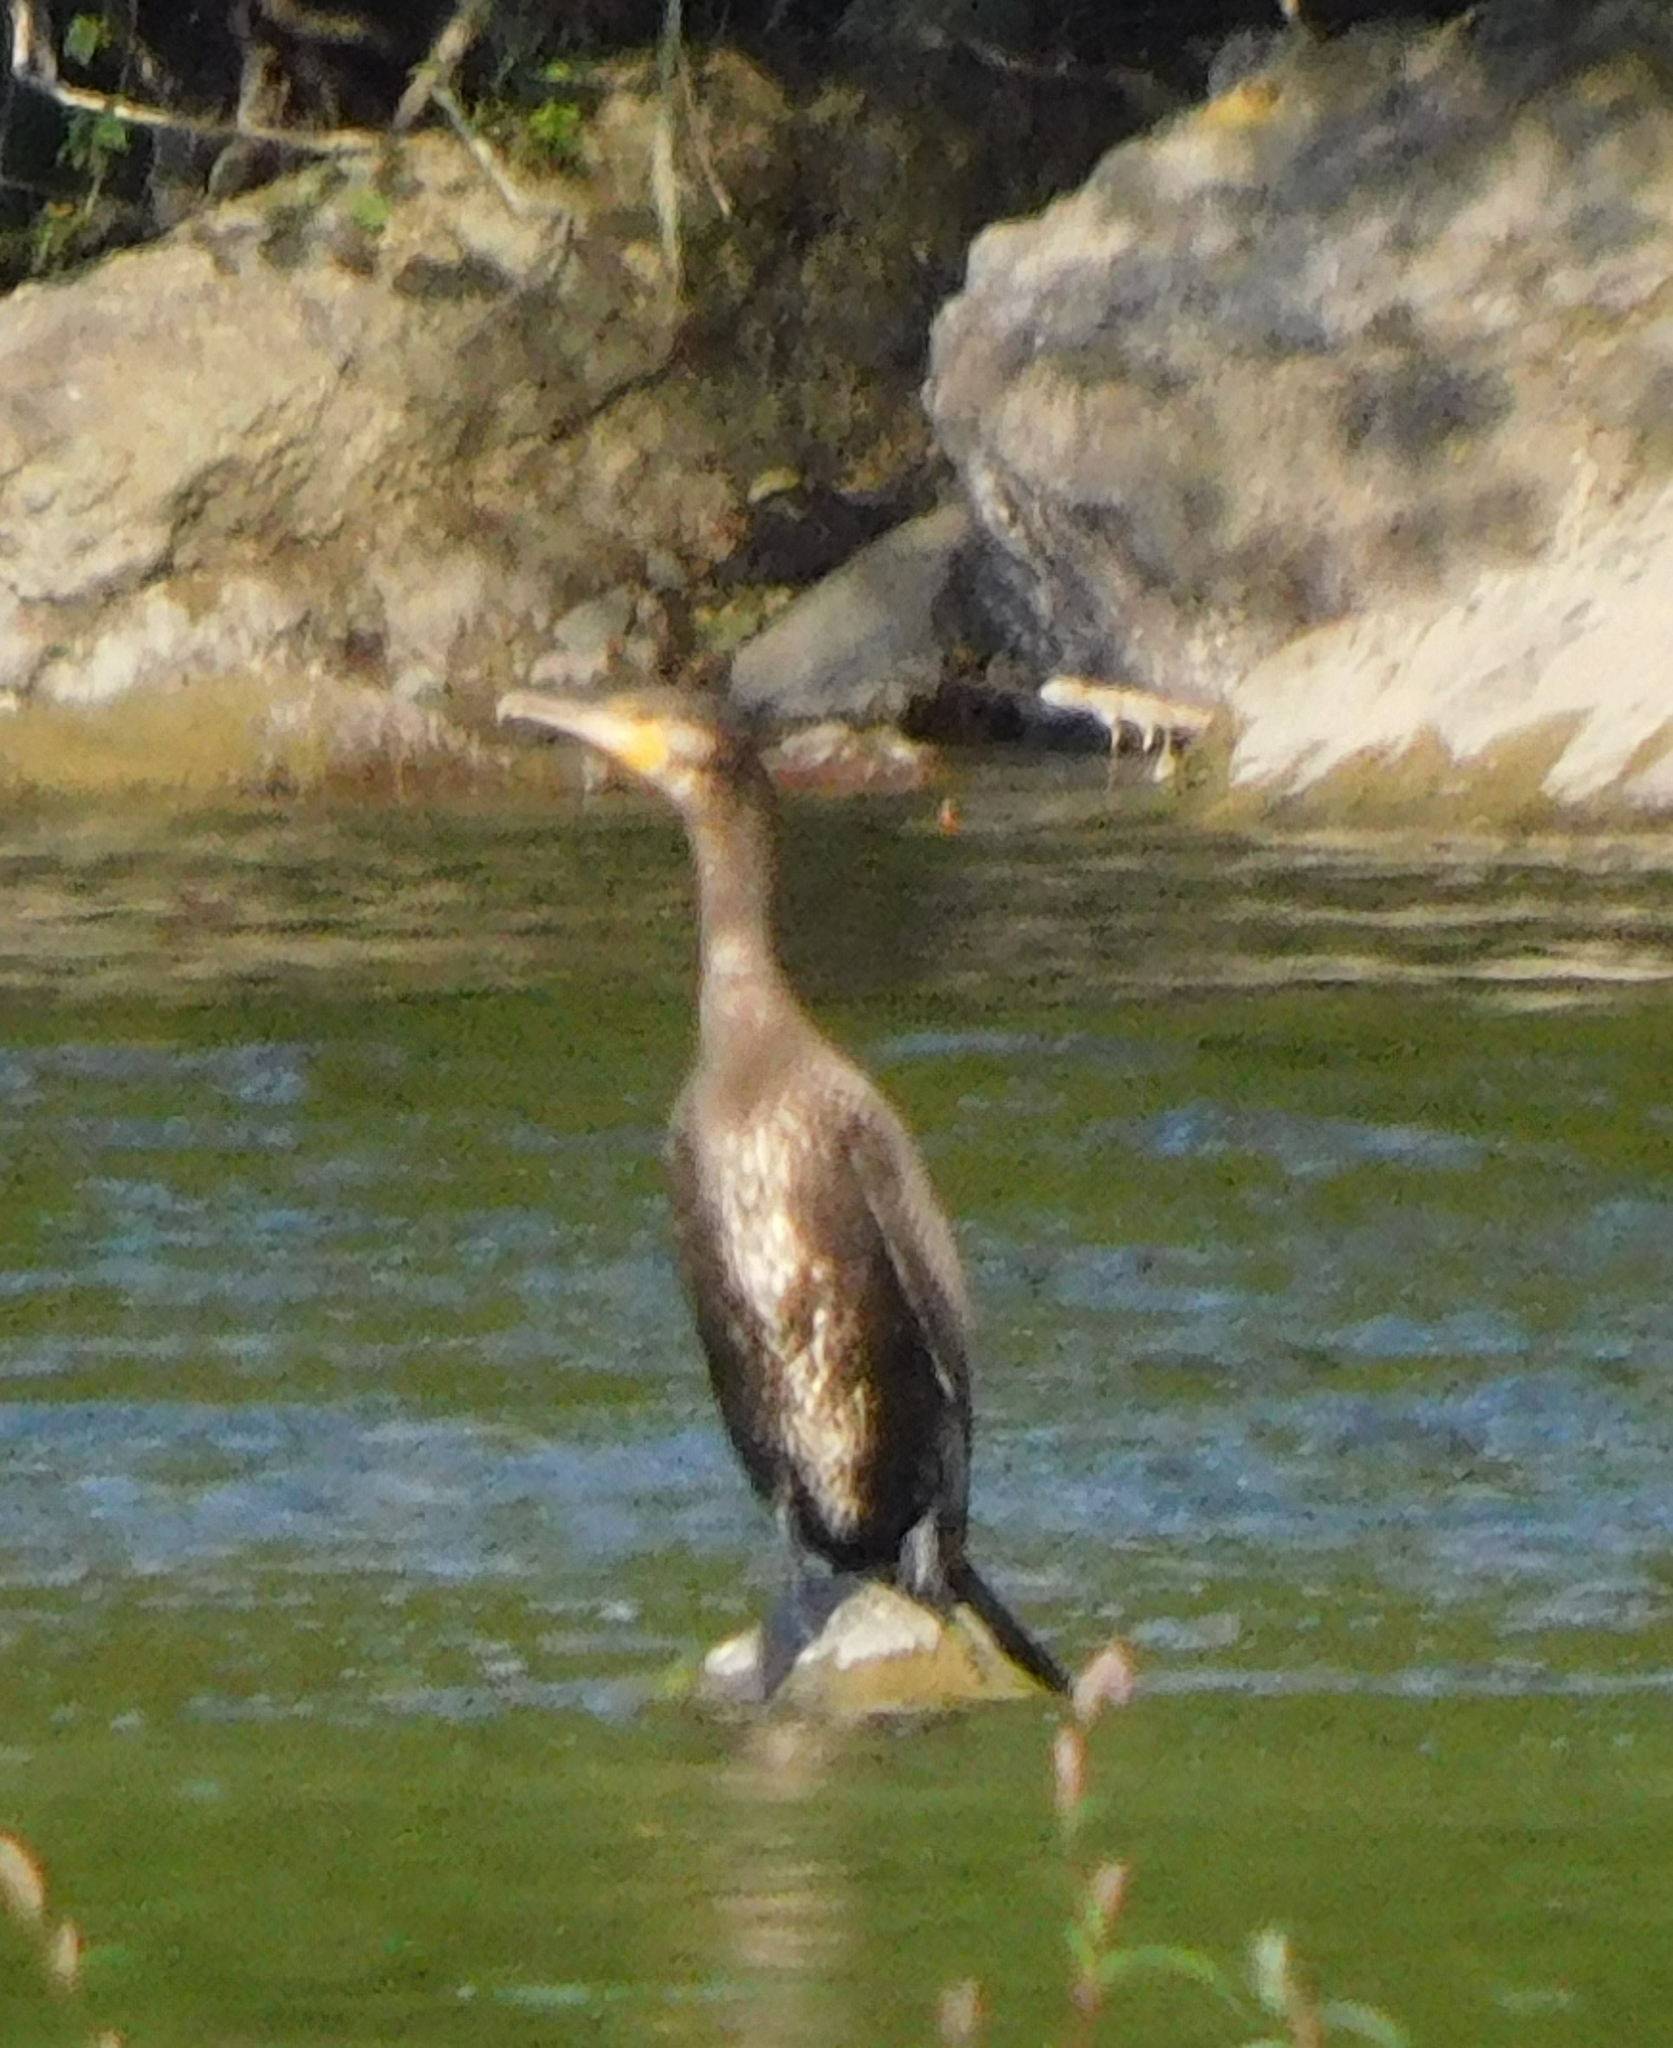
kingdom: Animalia
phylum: Chordata
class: Aves
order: Suliformes
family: Phalacrocoracidae
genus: Phalacrocorax
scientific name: Phalacrocorax carbo
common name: Great cormorant
